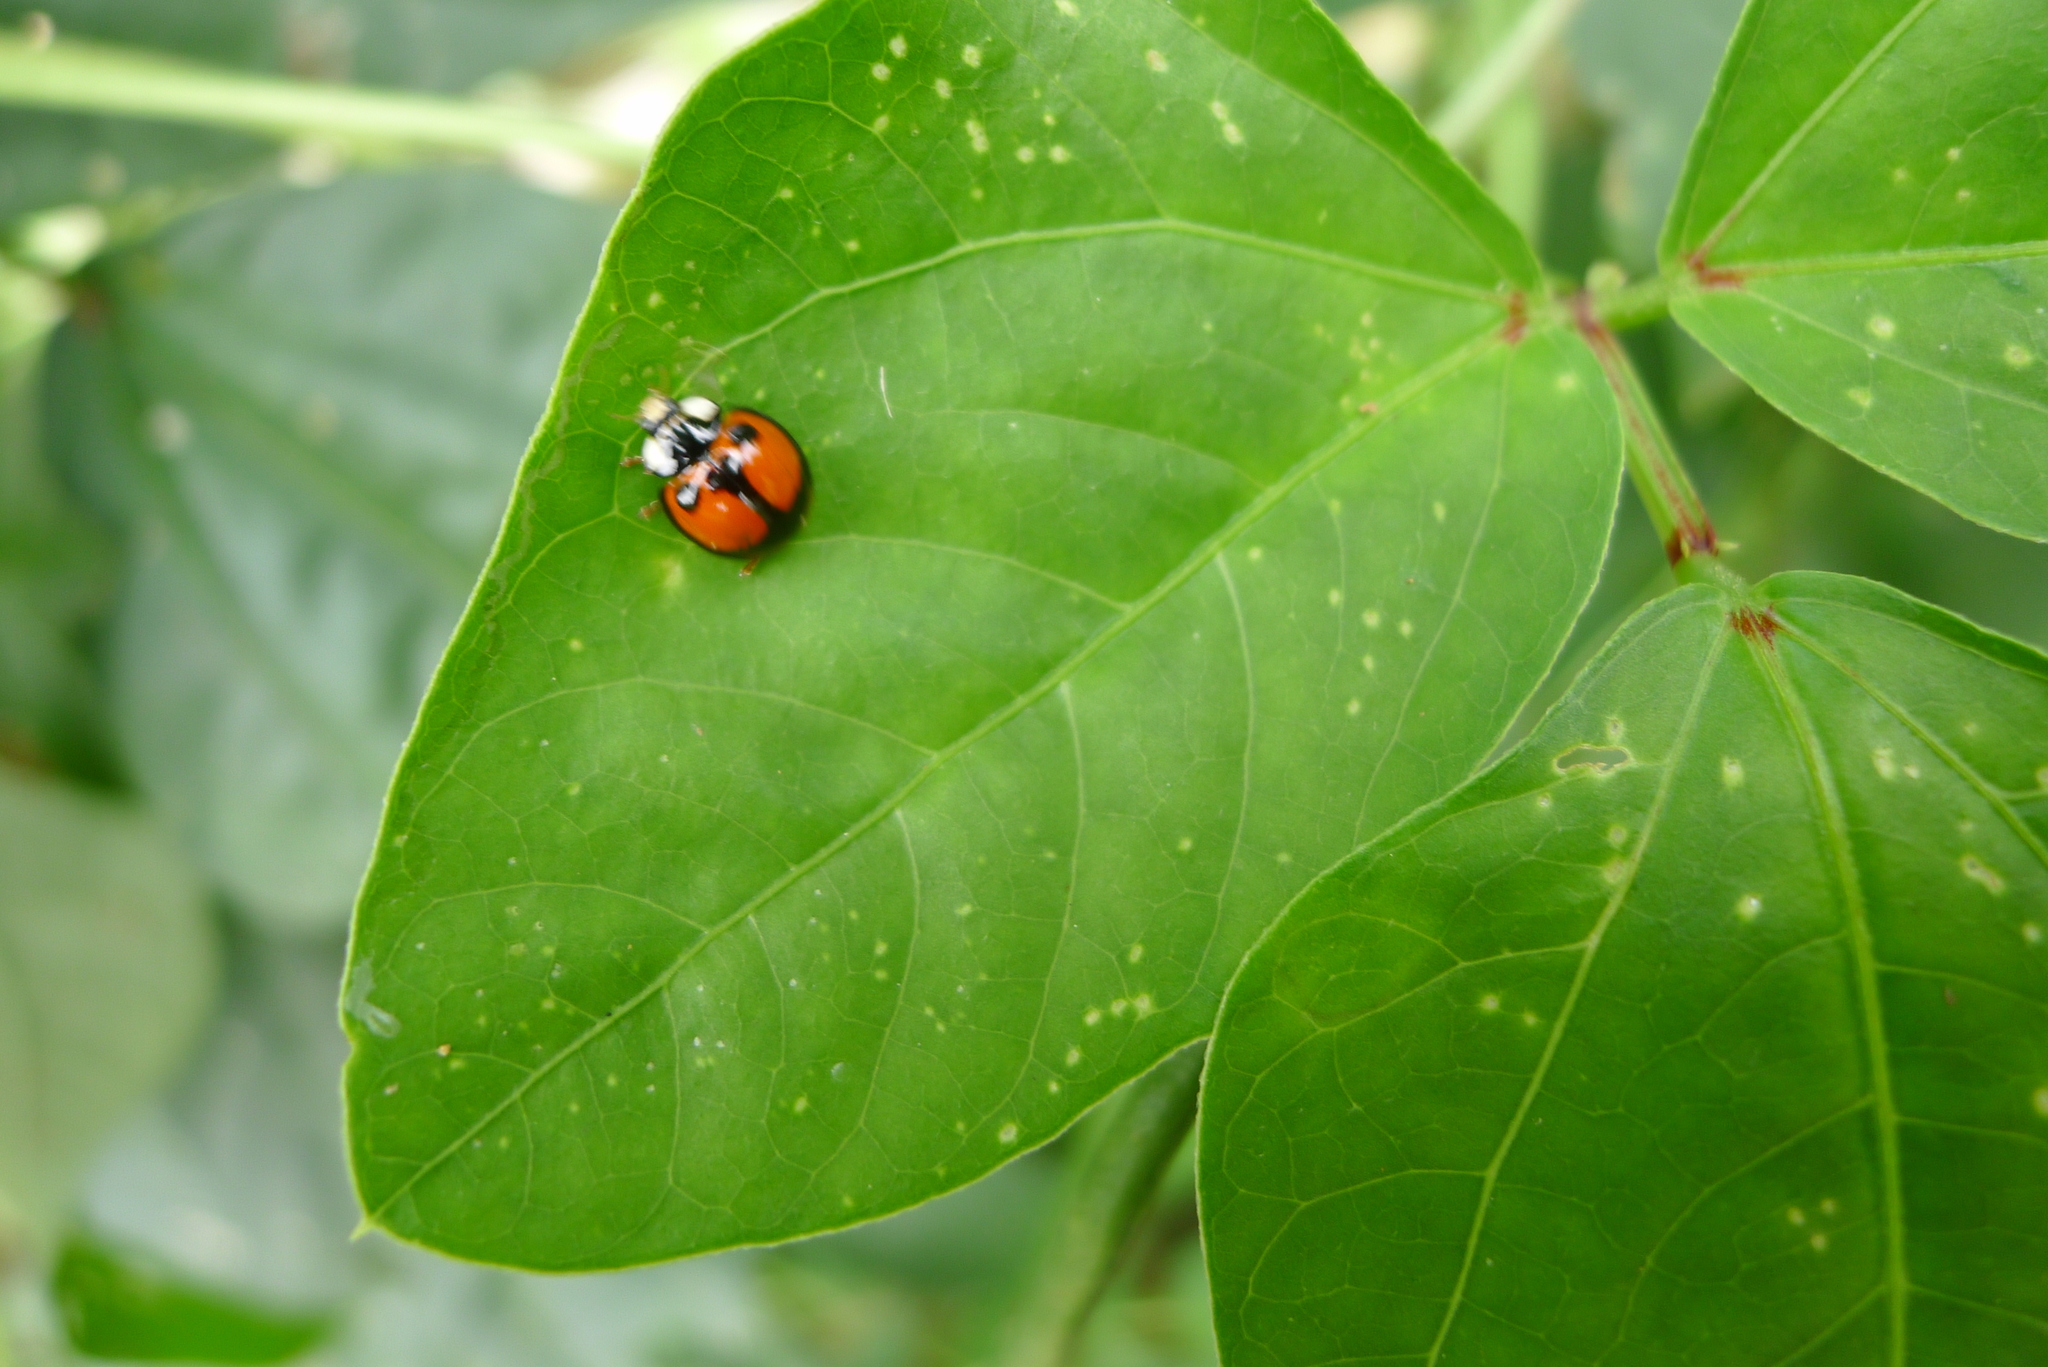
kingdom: Animalia
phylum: Arthropoda
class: Insecta
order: Coleoptera
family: Coccinellidae
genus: Coelophora
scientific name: Coelophora biplagiata
